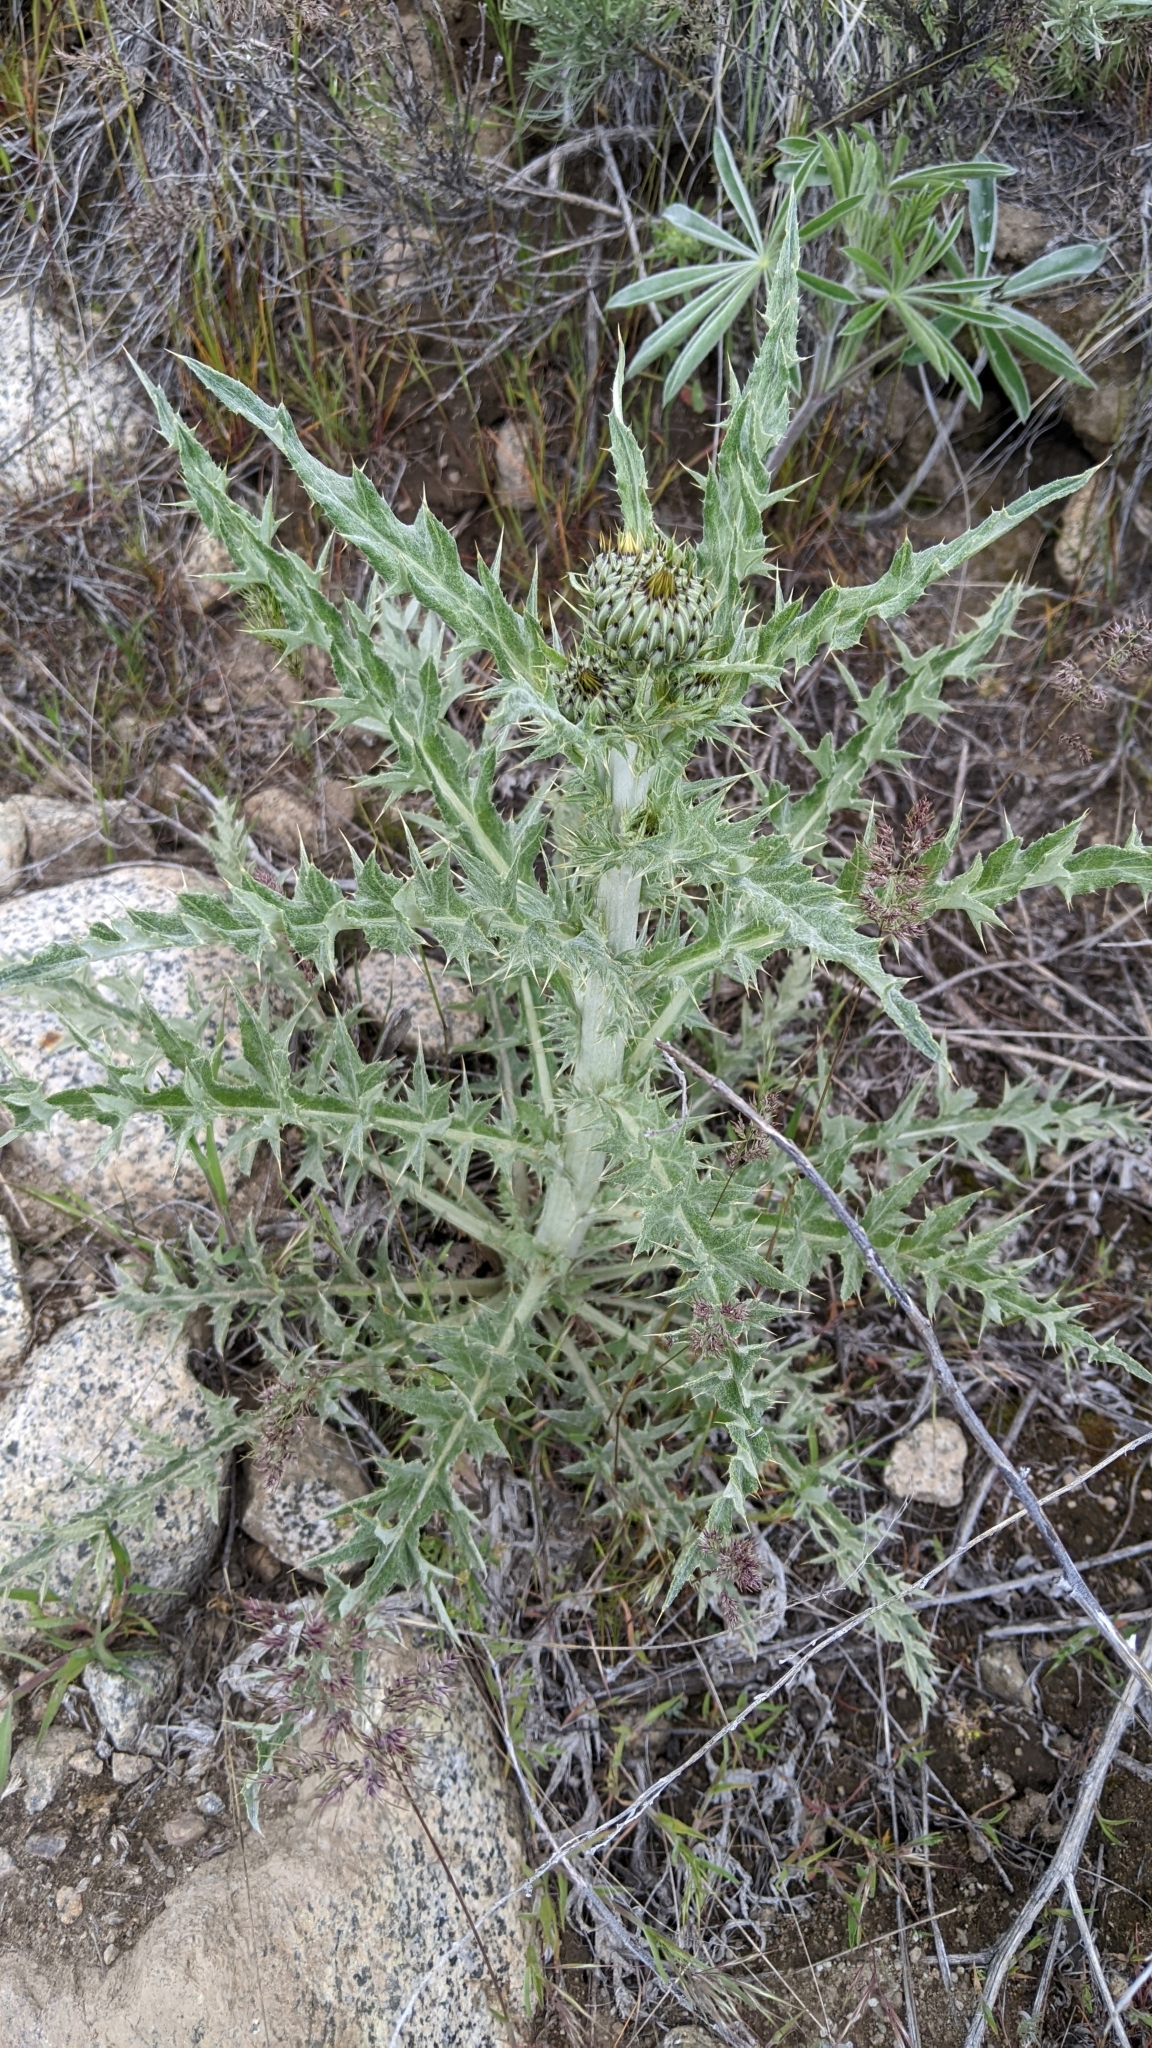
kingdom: Plantae
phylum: Tracheophyta
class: Magnoliopsida
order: Asterales
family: Asteraceae
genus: Cirsium
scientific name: Cirsium undulatum
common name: Pasture thistle
